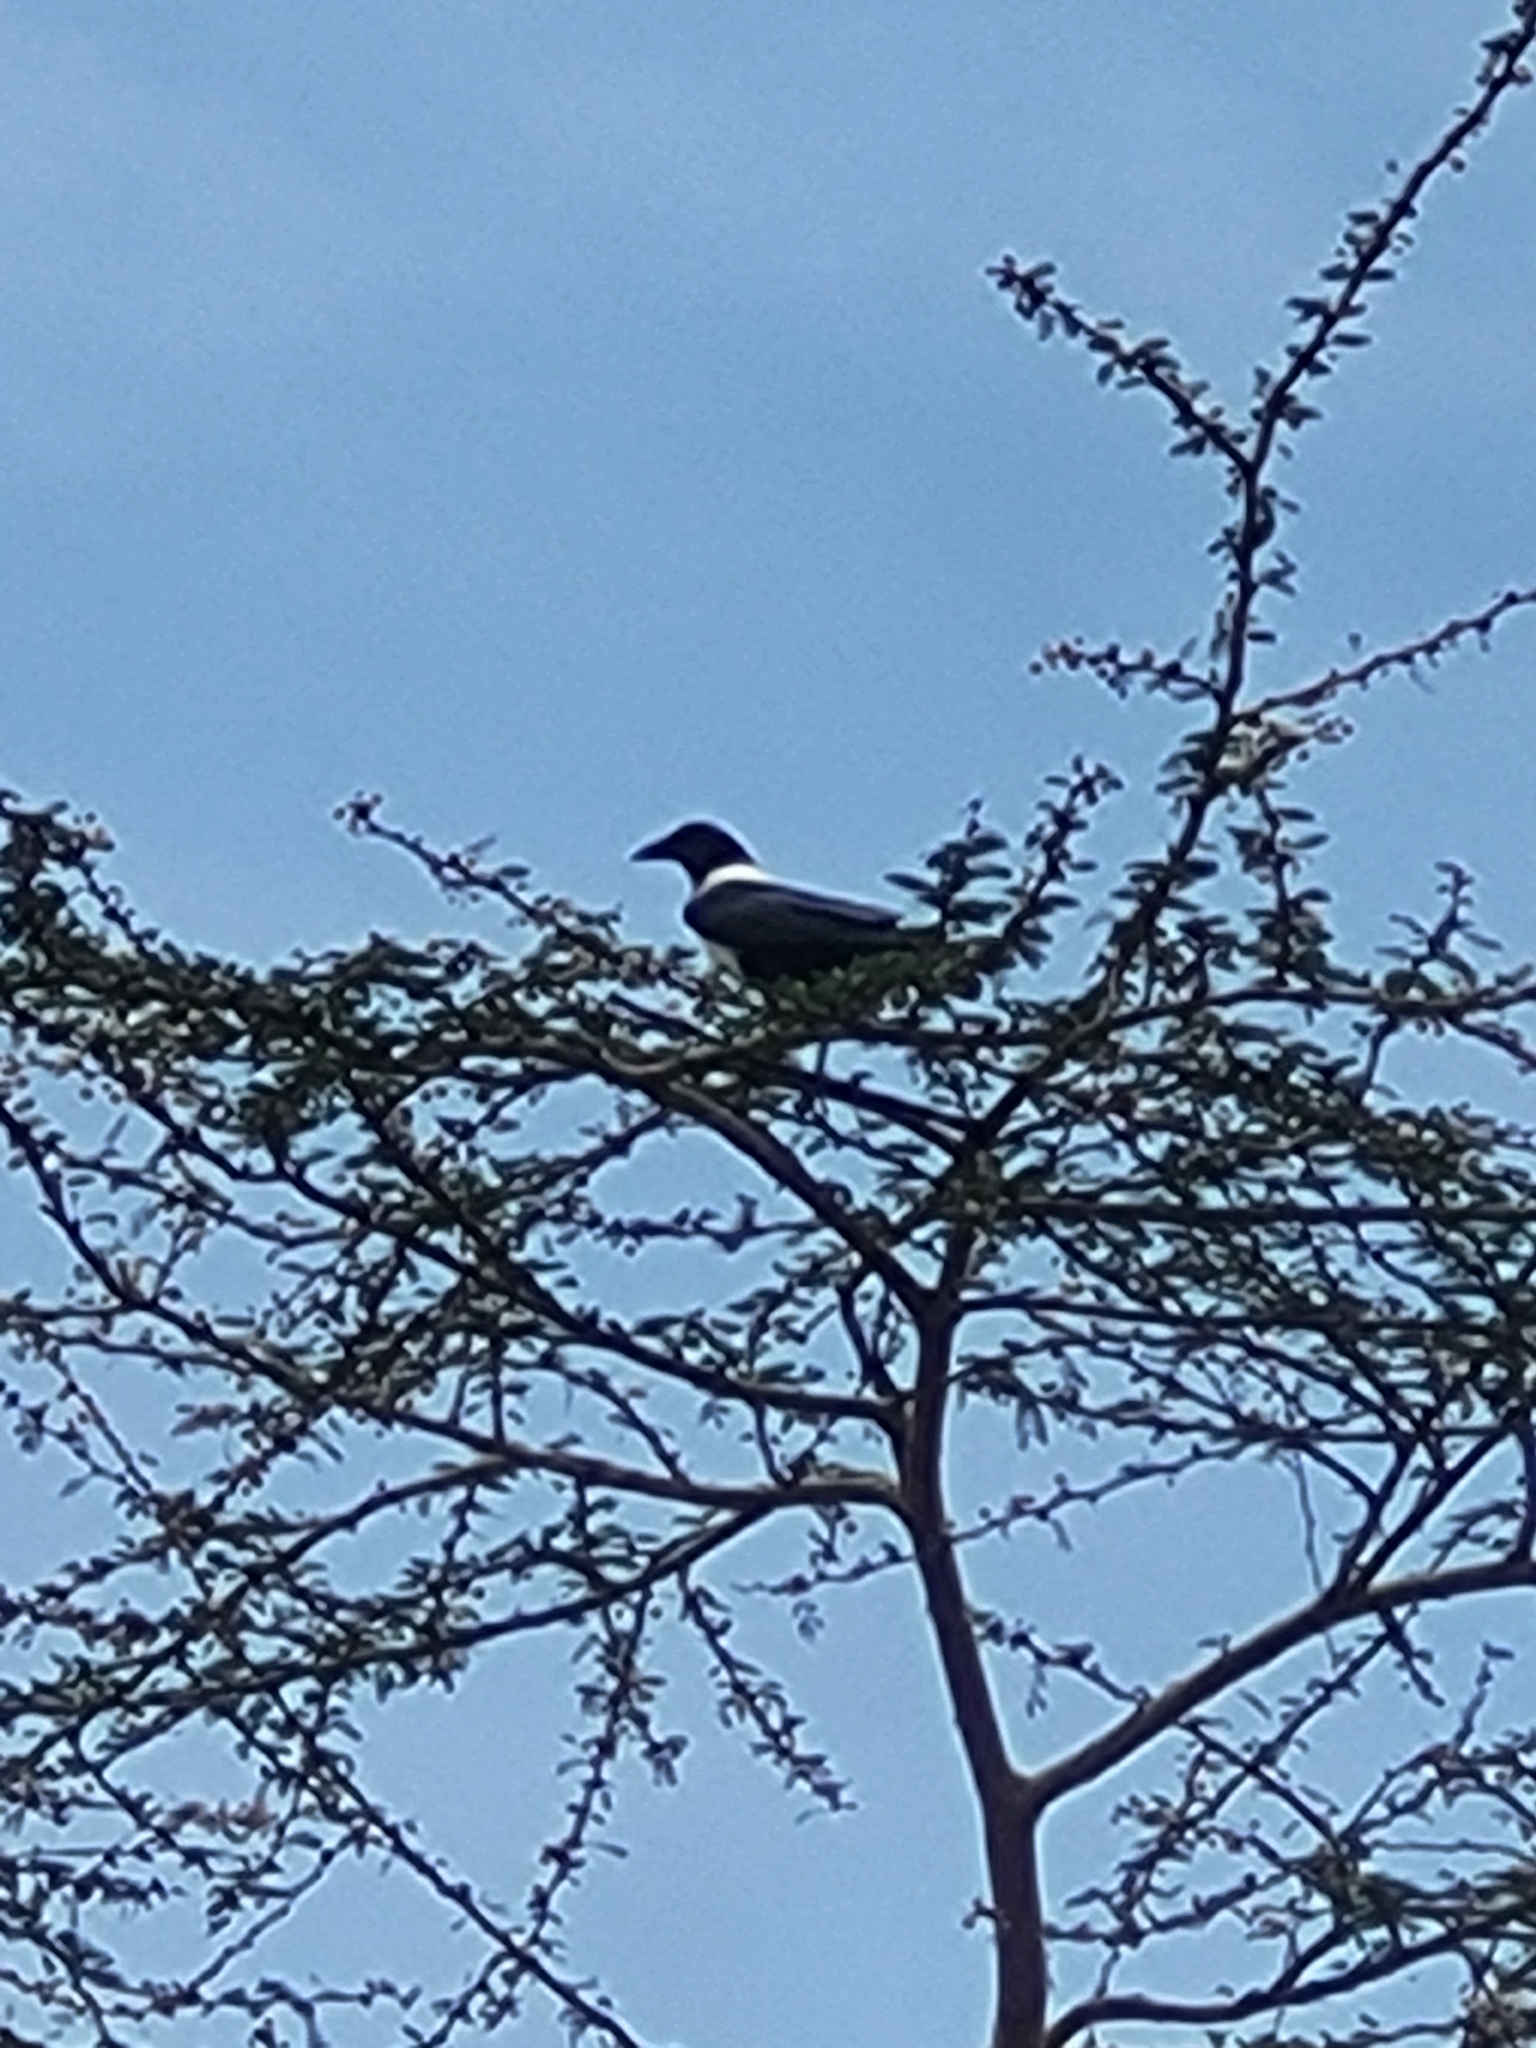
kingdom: Animalia
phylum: Chordata
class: Aves
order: Passeriformes
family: Corvidae
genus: Corvus
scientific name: Corvus albus
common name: Pied crow
